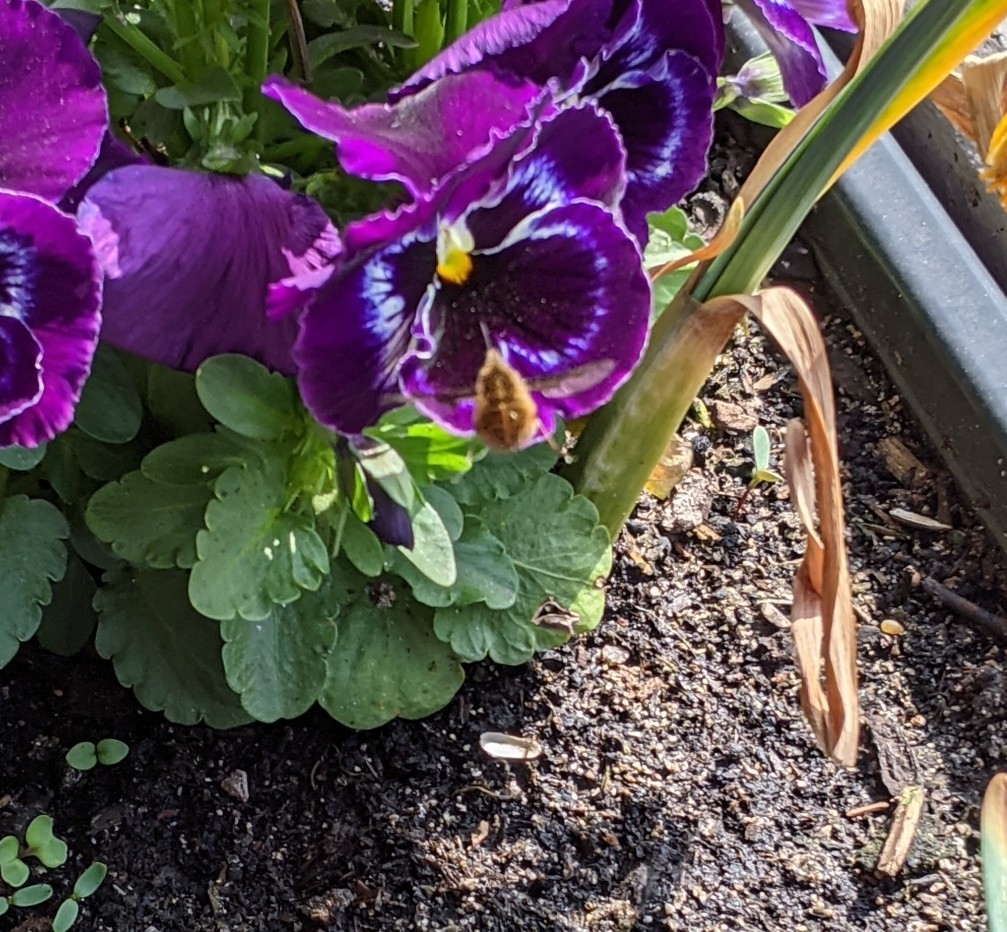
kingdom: Animalia
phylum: Arthropoda
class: Insecta
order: Diptera
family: Bombyliidae
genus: Bombylius
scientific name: Bombylius major
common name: Bee fly
